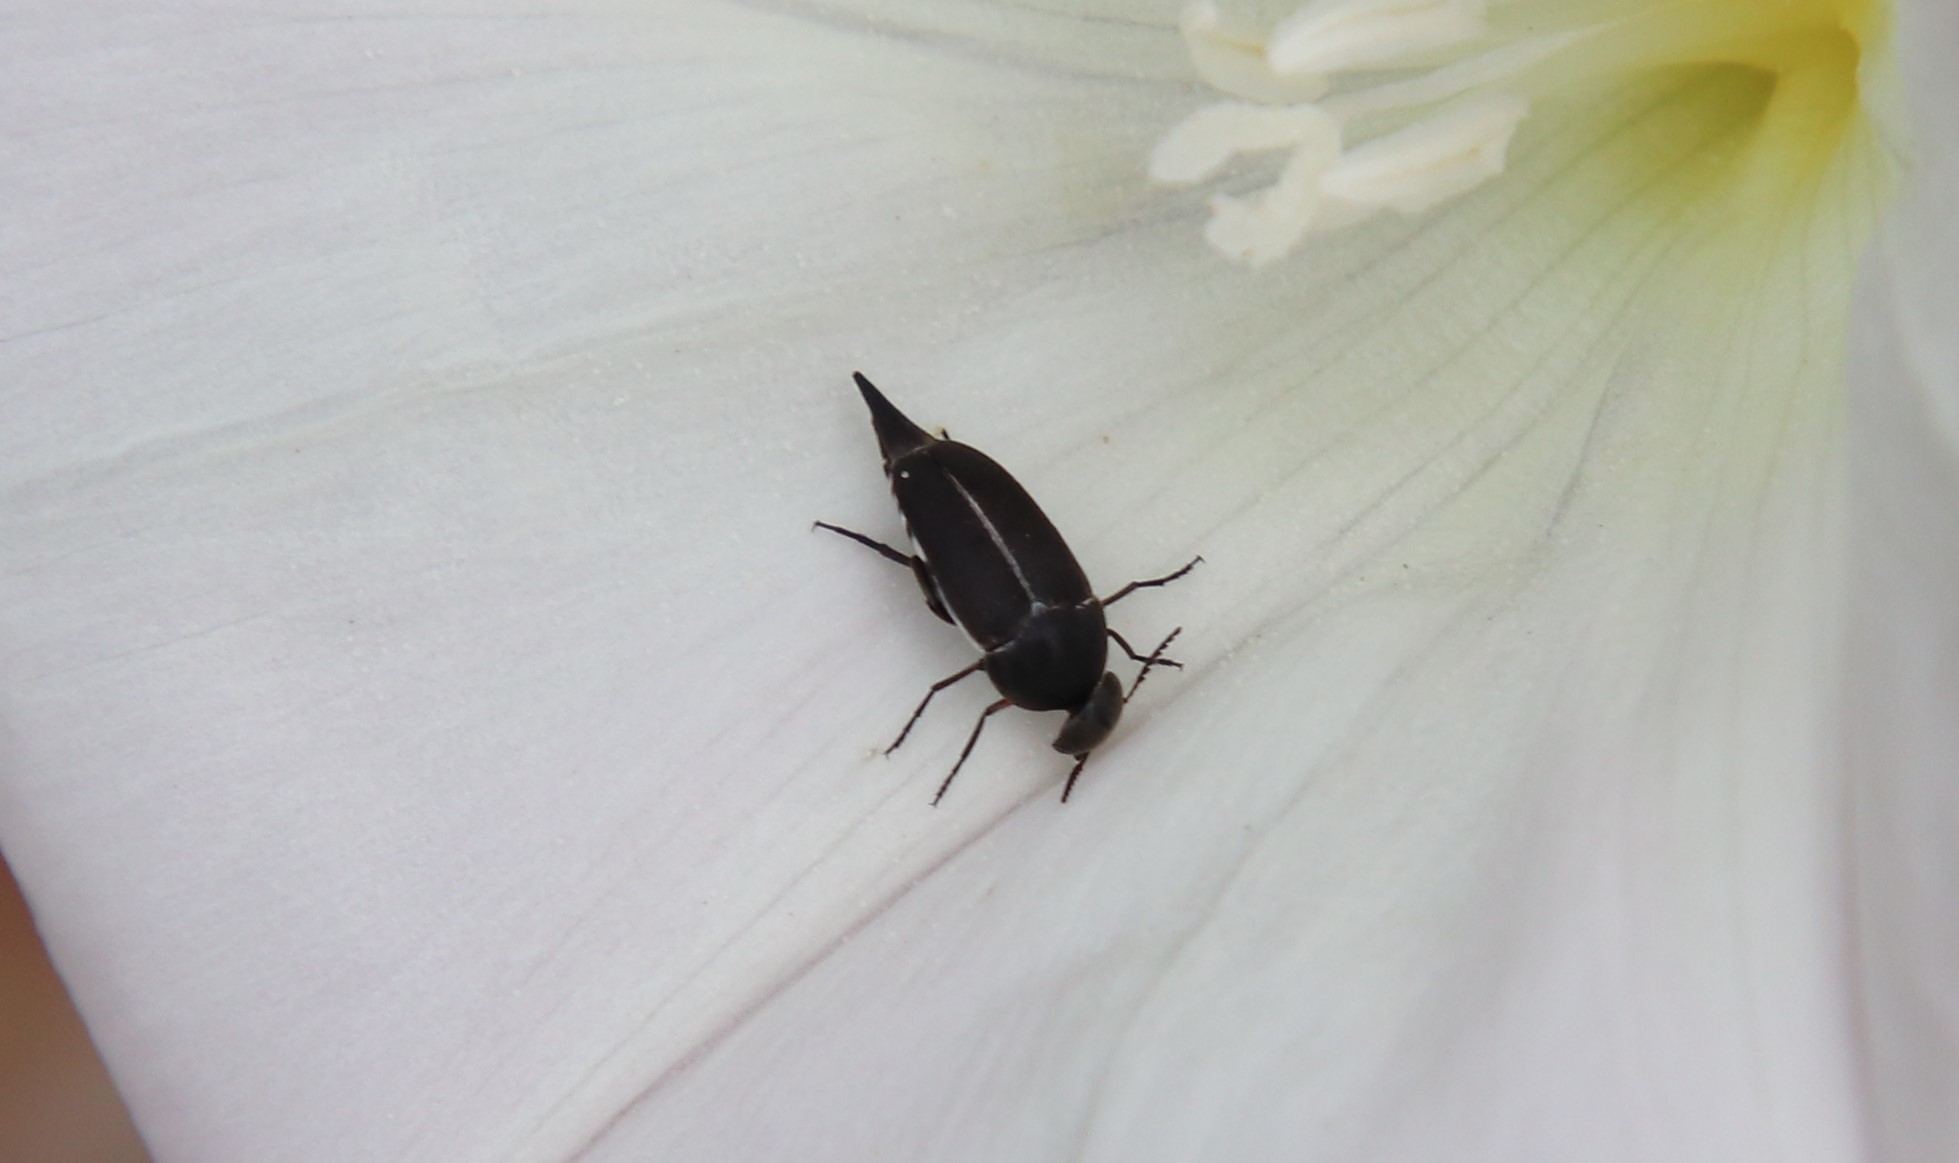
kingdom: Animalia
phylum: Arthropoda
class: Insecta
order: Coleoptera
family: Mordellidae
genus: Mordella
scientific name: Mordella hubbsi
